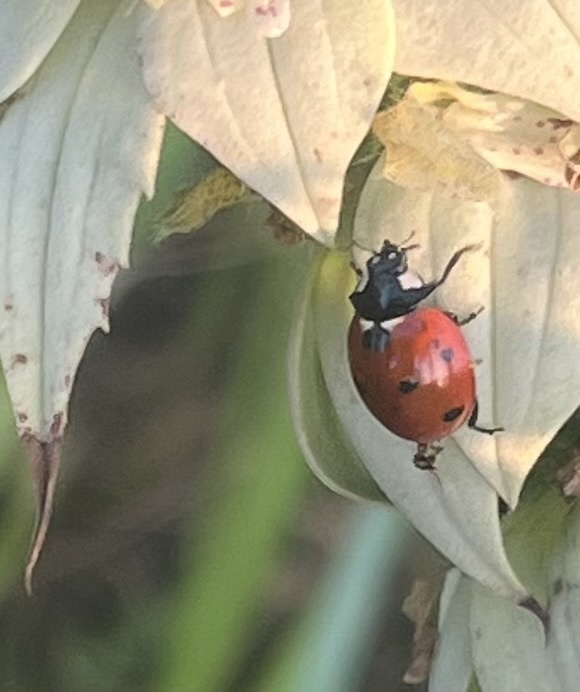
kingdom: Animalia
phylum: Arthropoda
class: Insecta
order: Coleoptera
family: Coccinellidae
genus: Coccinella
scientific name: Coccinella septempunctata
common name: Sevenspotted lady beetle
